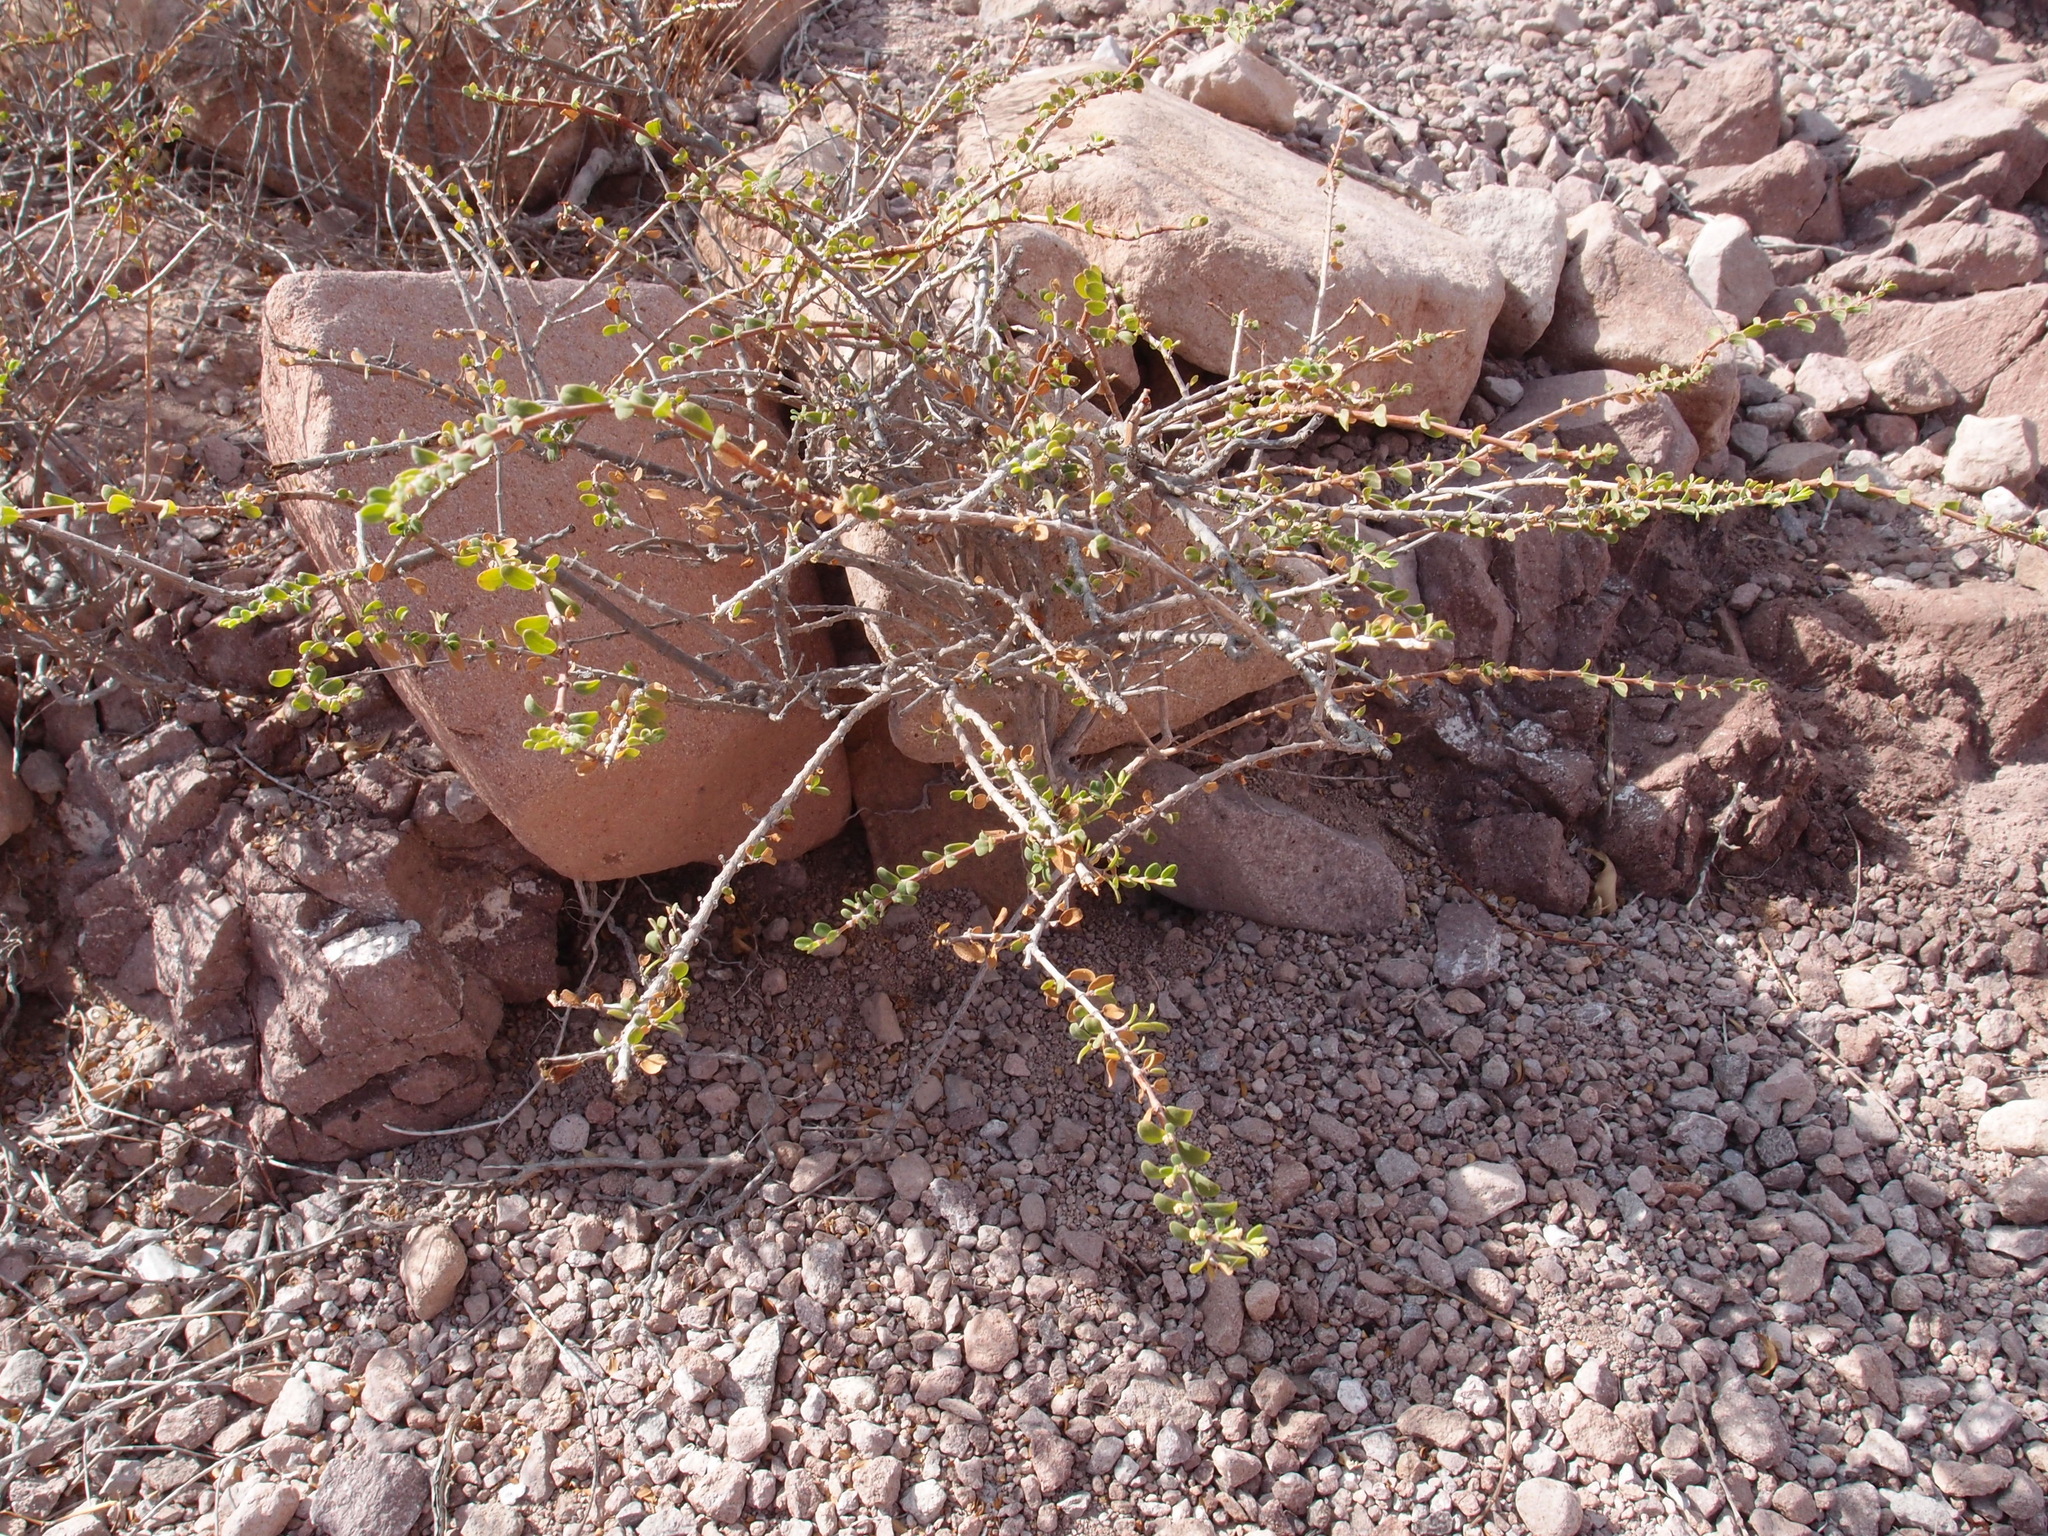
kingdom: Plantae
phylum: Tracheophyta
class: Magnoliopsida
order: Malpighiales
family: Euphorbiaceae
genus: Euphorbia
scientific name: Euphorbia magdalenae
